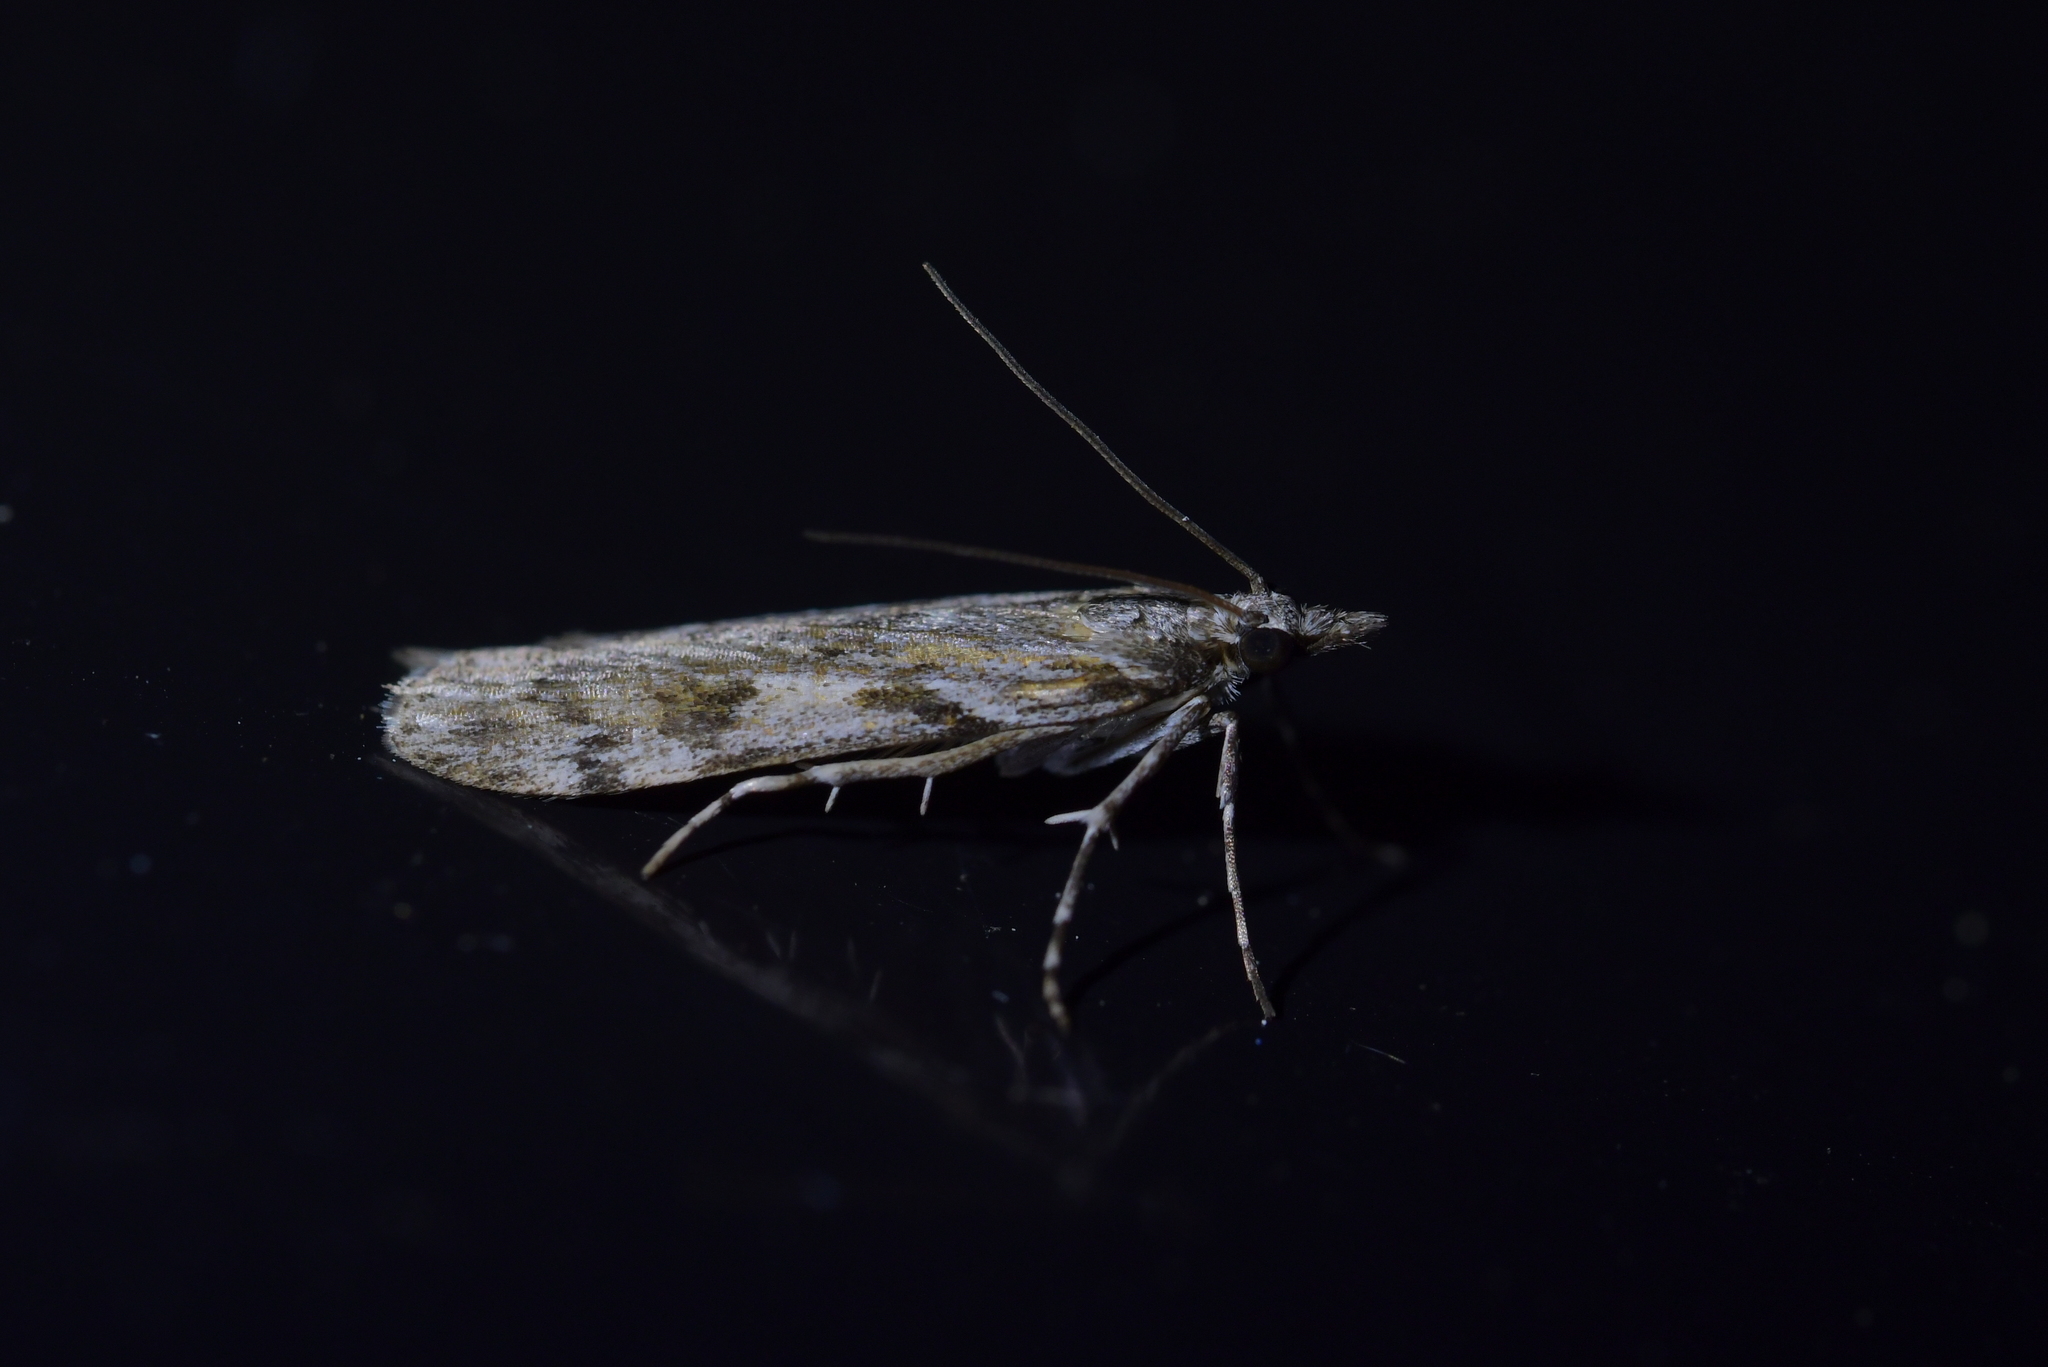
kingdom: Animalia
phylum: Arthropoda
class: Insecta
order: Lepidoptera
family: Crambidae
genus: Scoparia
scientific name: Scoparia halopis
